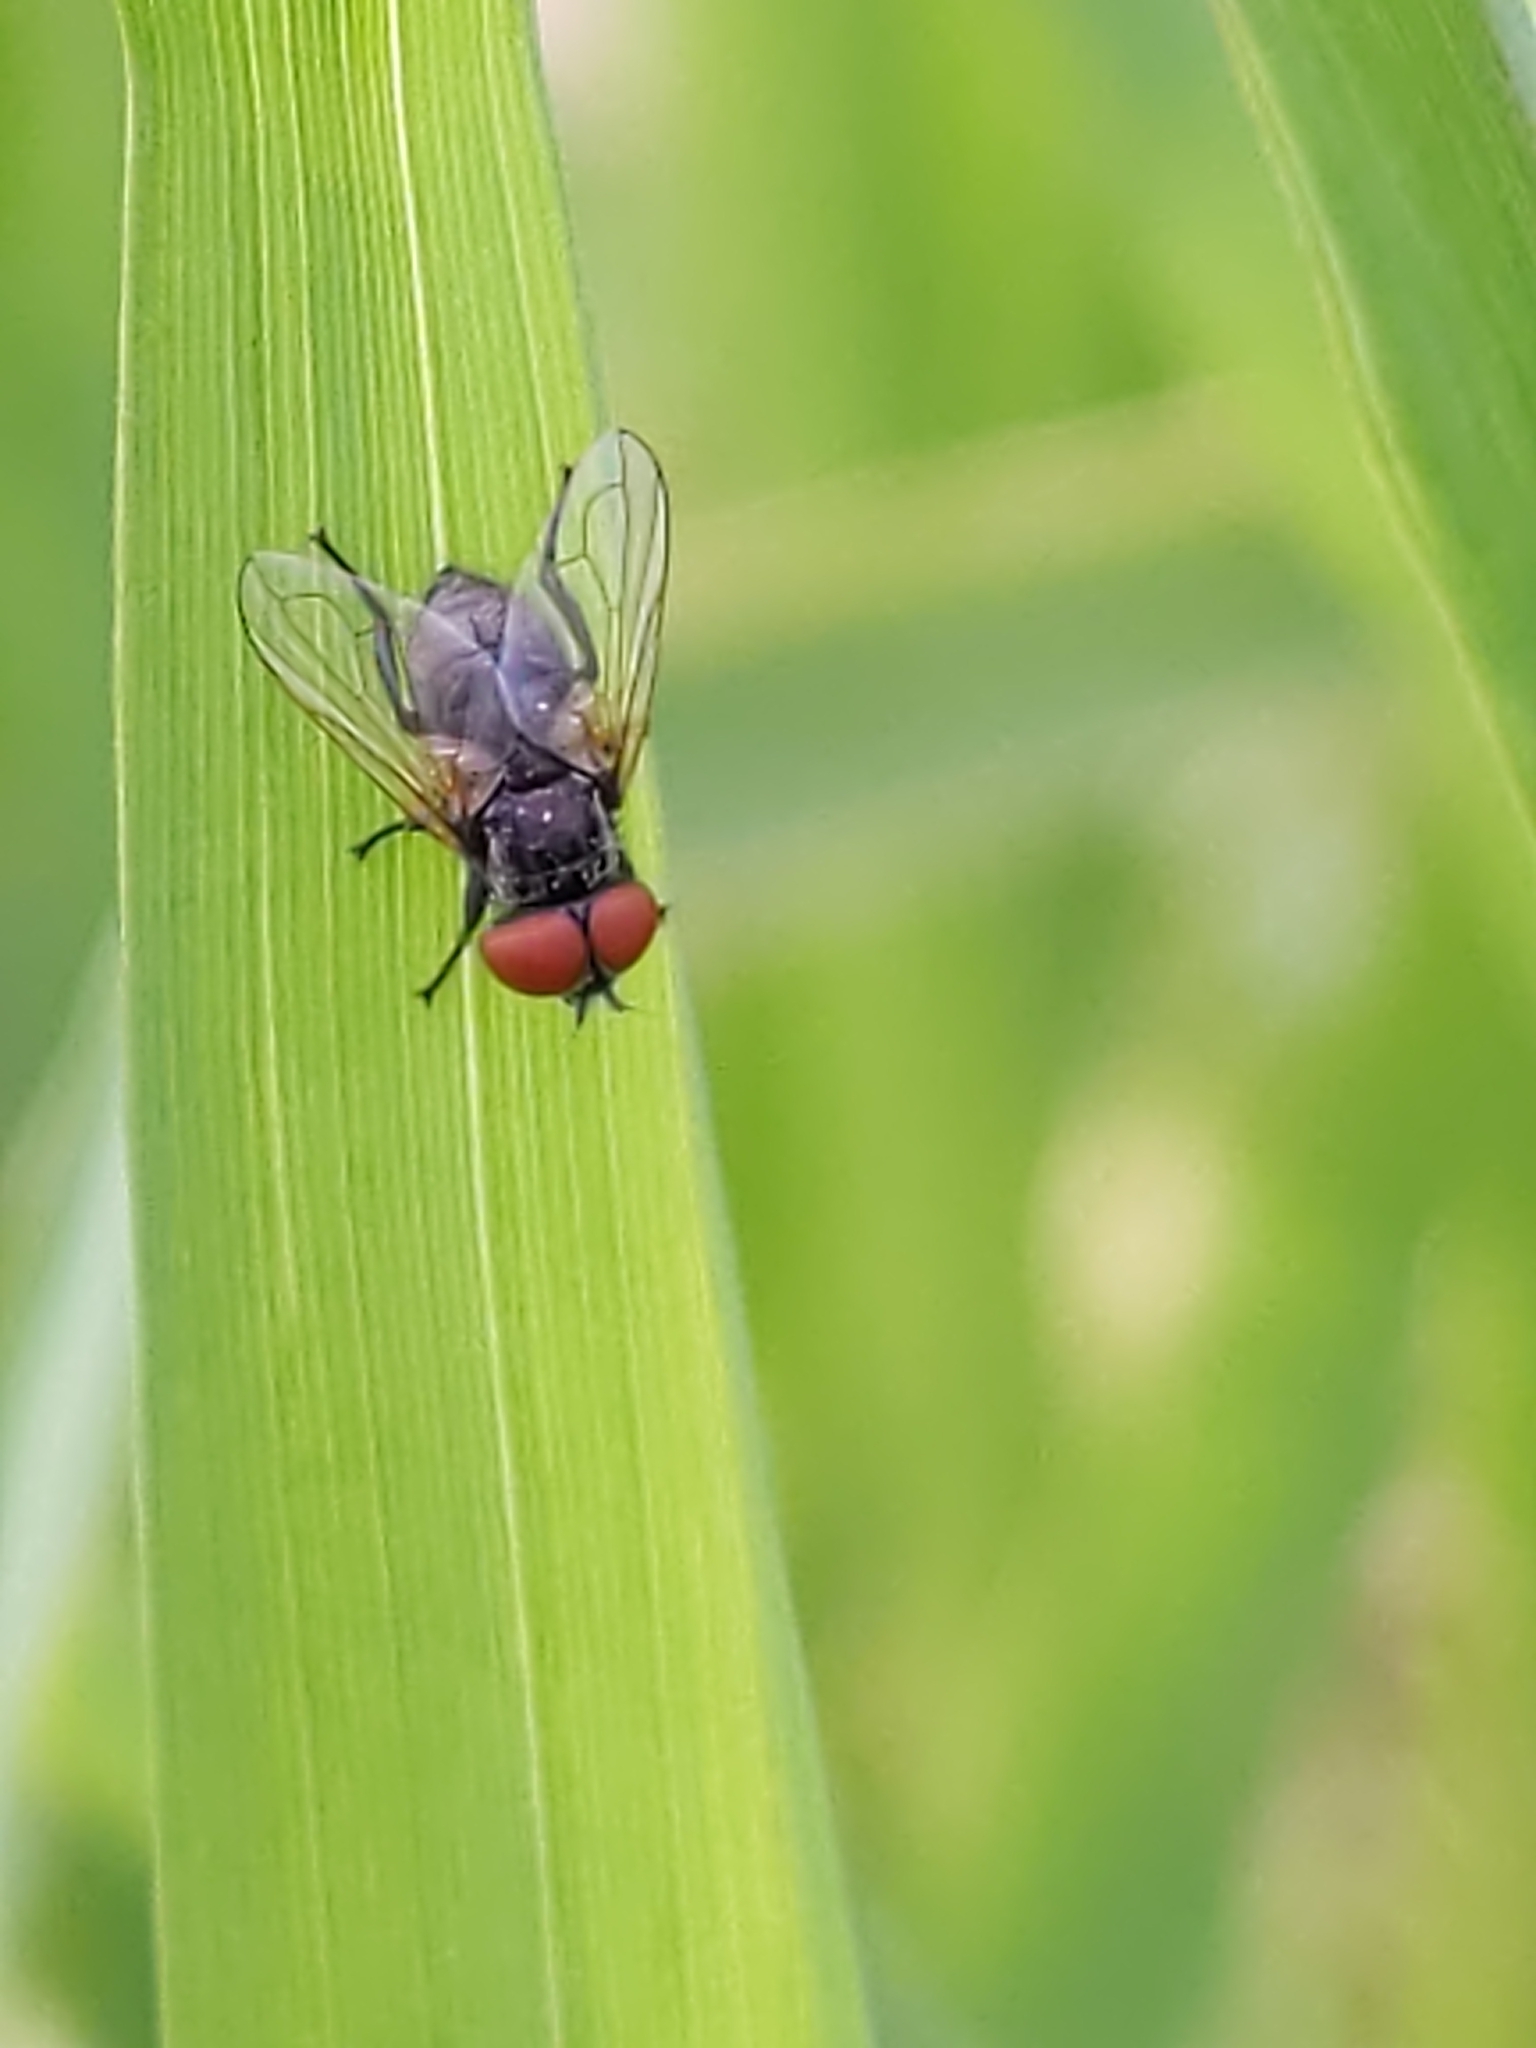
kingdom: Animalia
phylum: Arthropoda
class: Insecta
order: Diptera
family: Tachinidae
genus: Phasia
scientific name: Phasia
